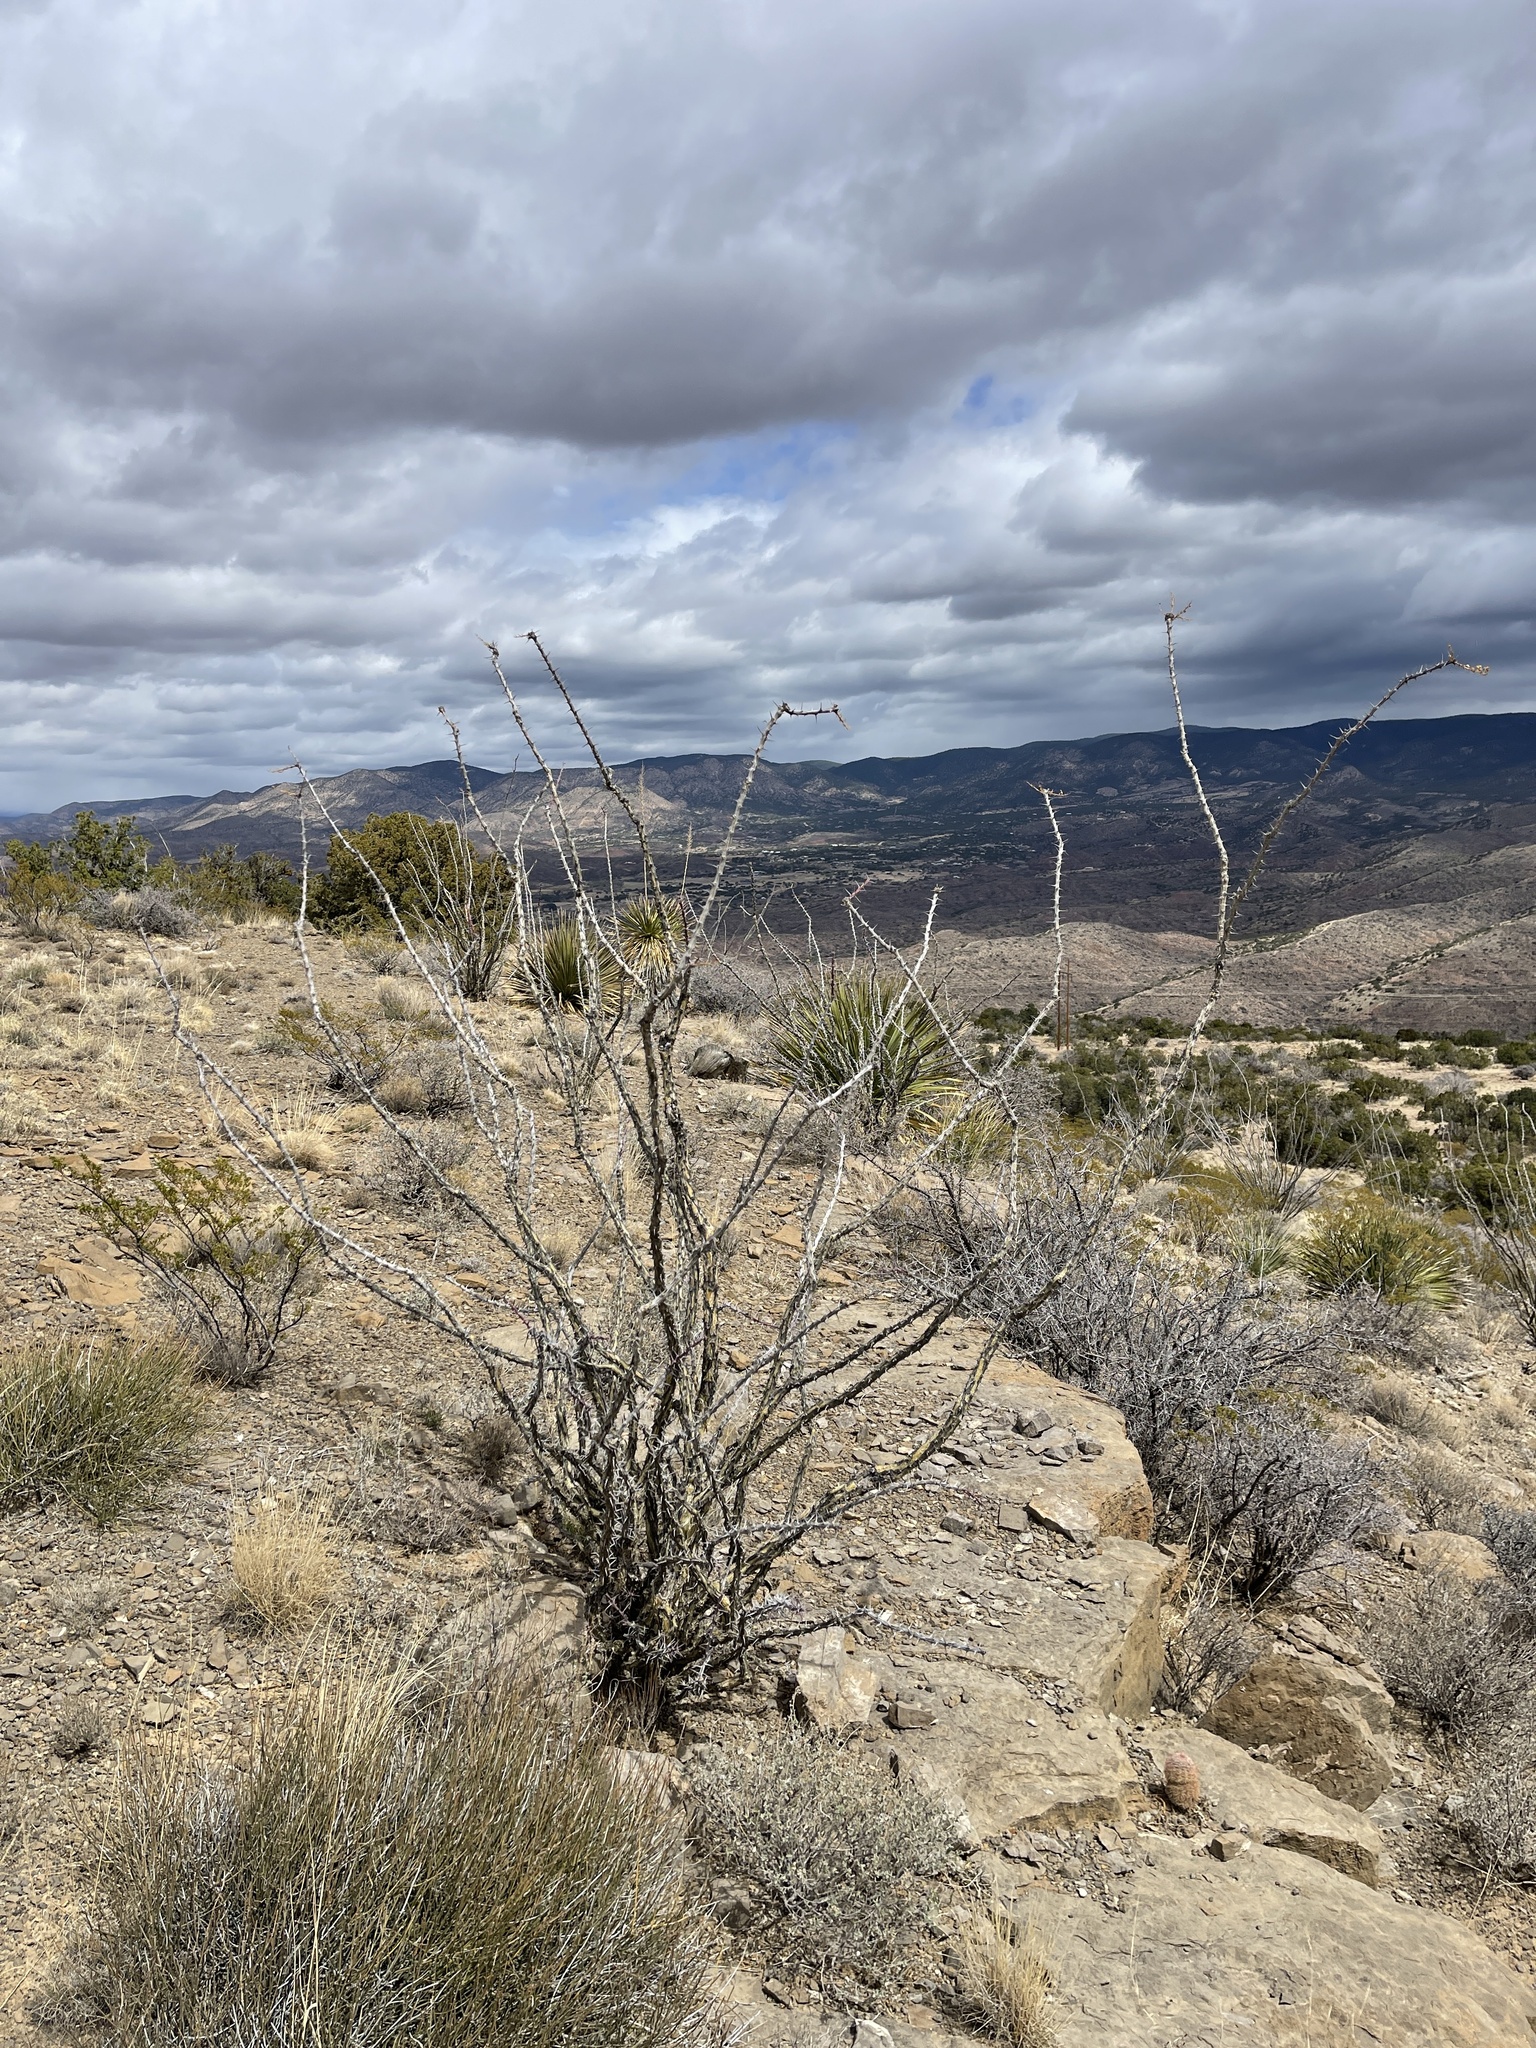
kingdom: Plantae
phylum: Tracheophyta
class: Magnoliopsida
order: Ericales
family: Fouquieriaceae
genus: Fouquieria
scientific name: Fouquieria splendens
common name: Vine-cactus
